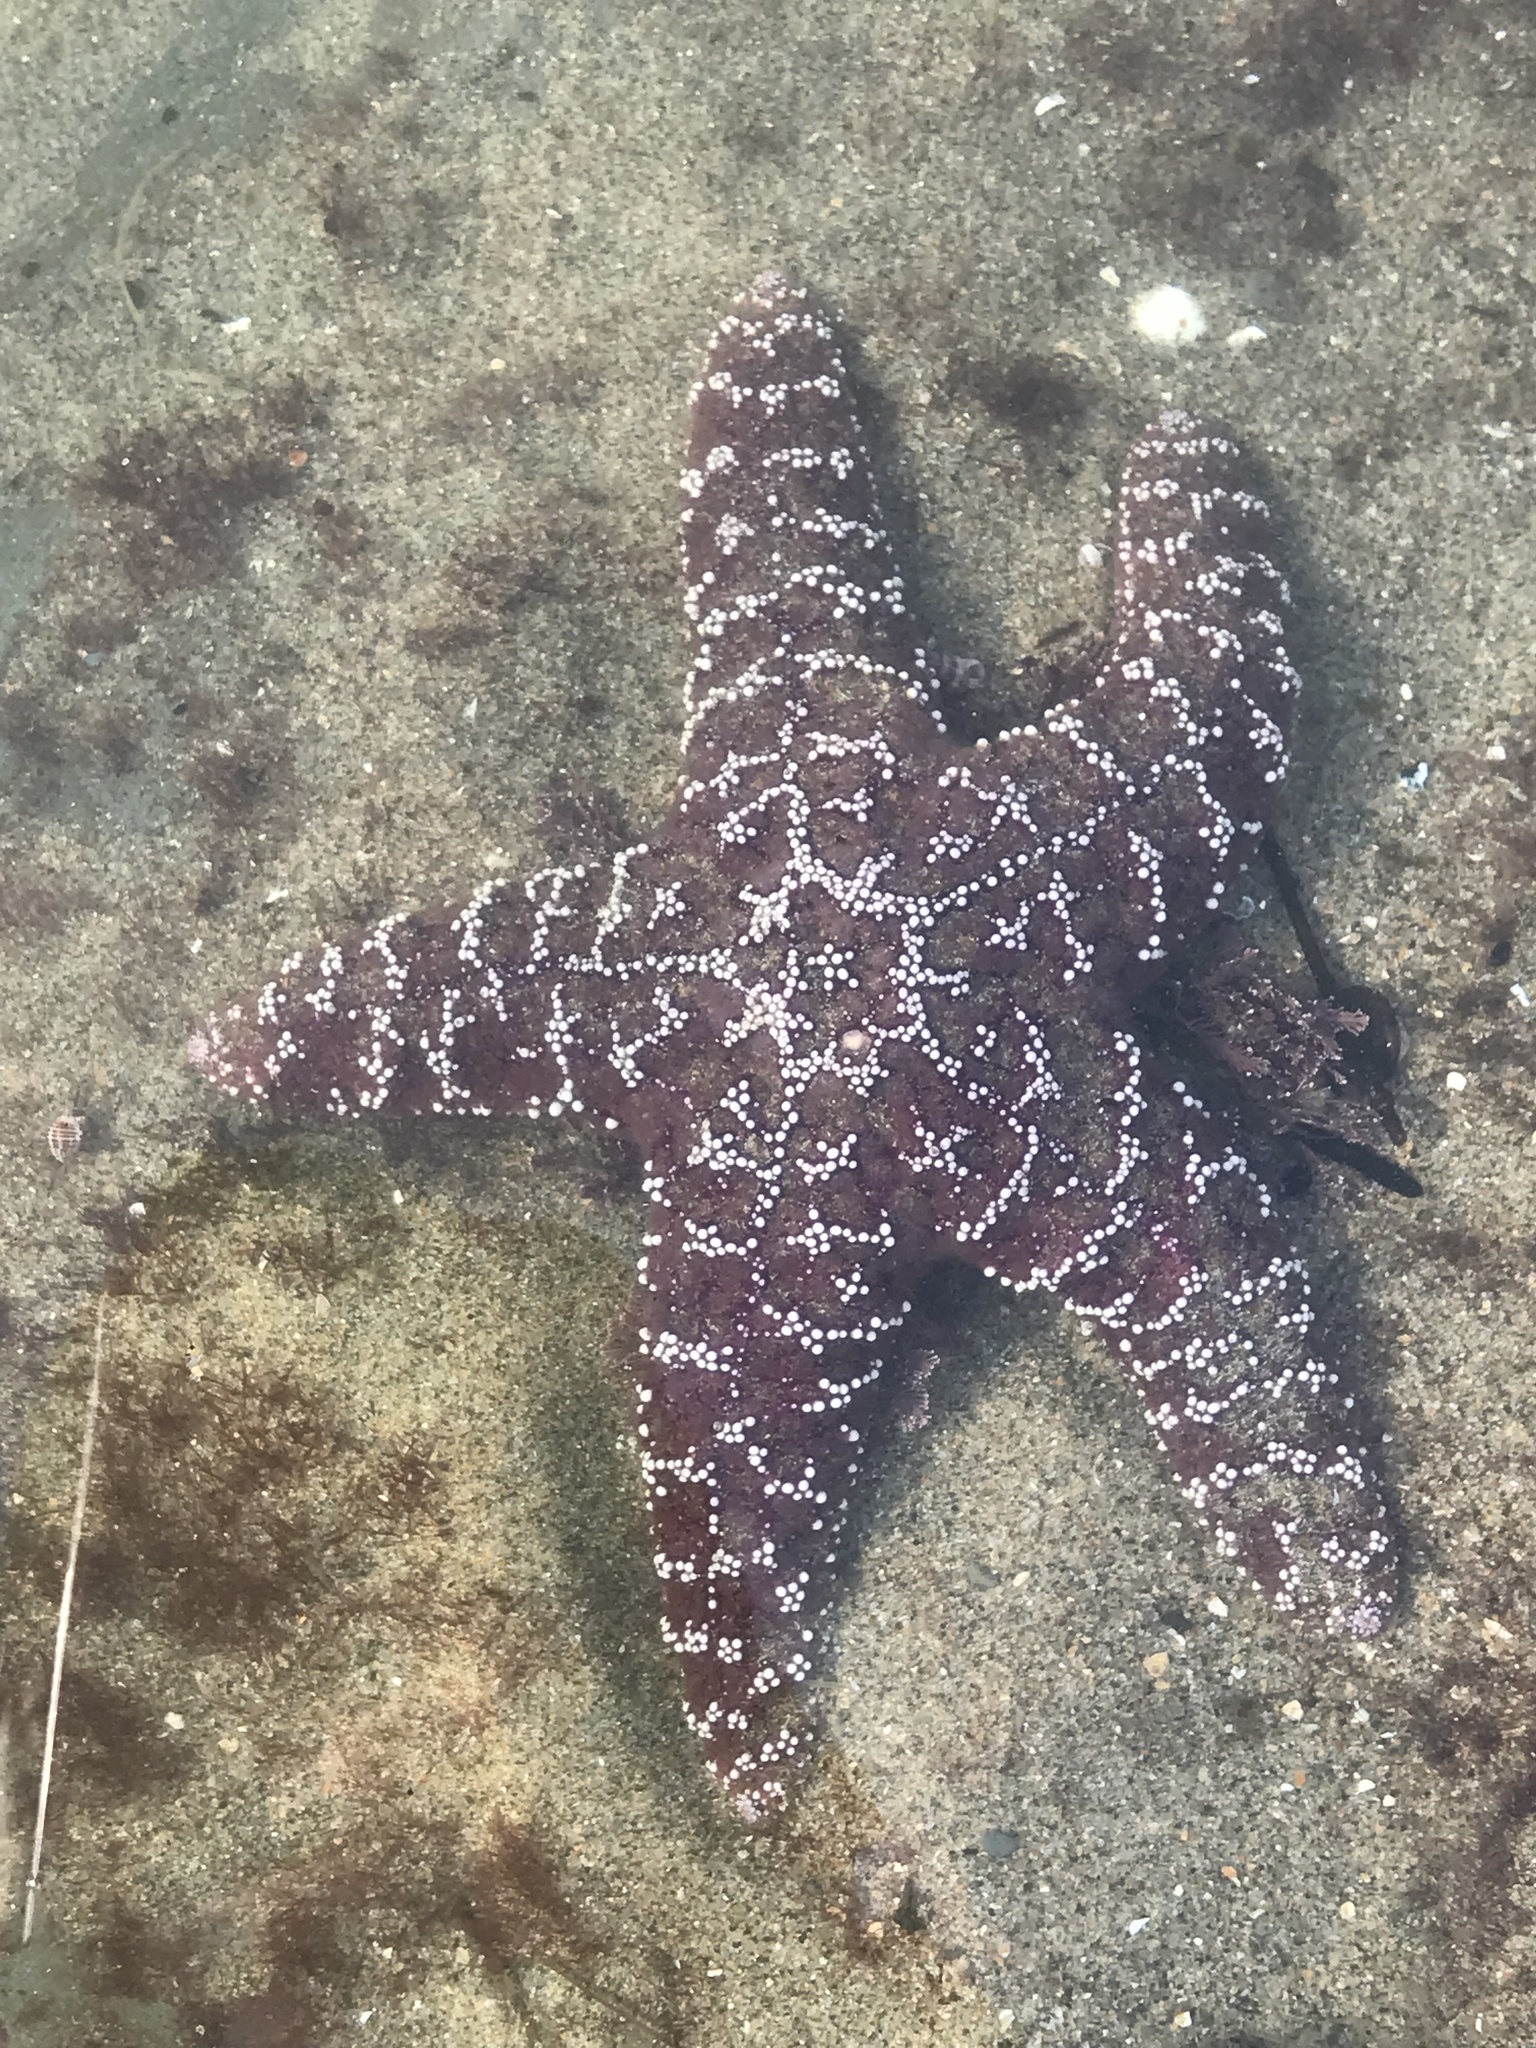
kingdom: Animalia
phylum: Echinodermata
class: Asteroidea
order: Forcipulatida
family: Asteriidae
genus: Pisaster
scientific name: Pisaster ochraceus
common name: Ochre stars
